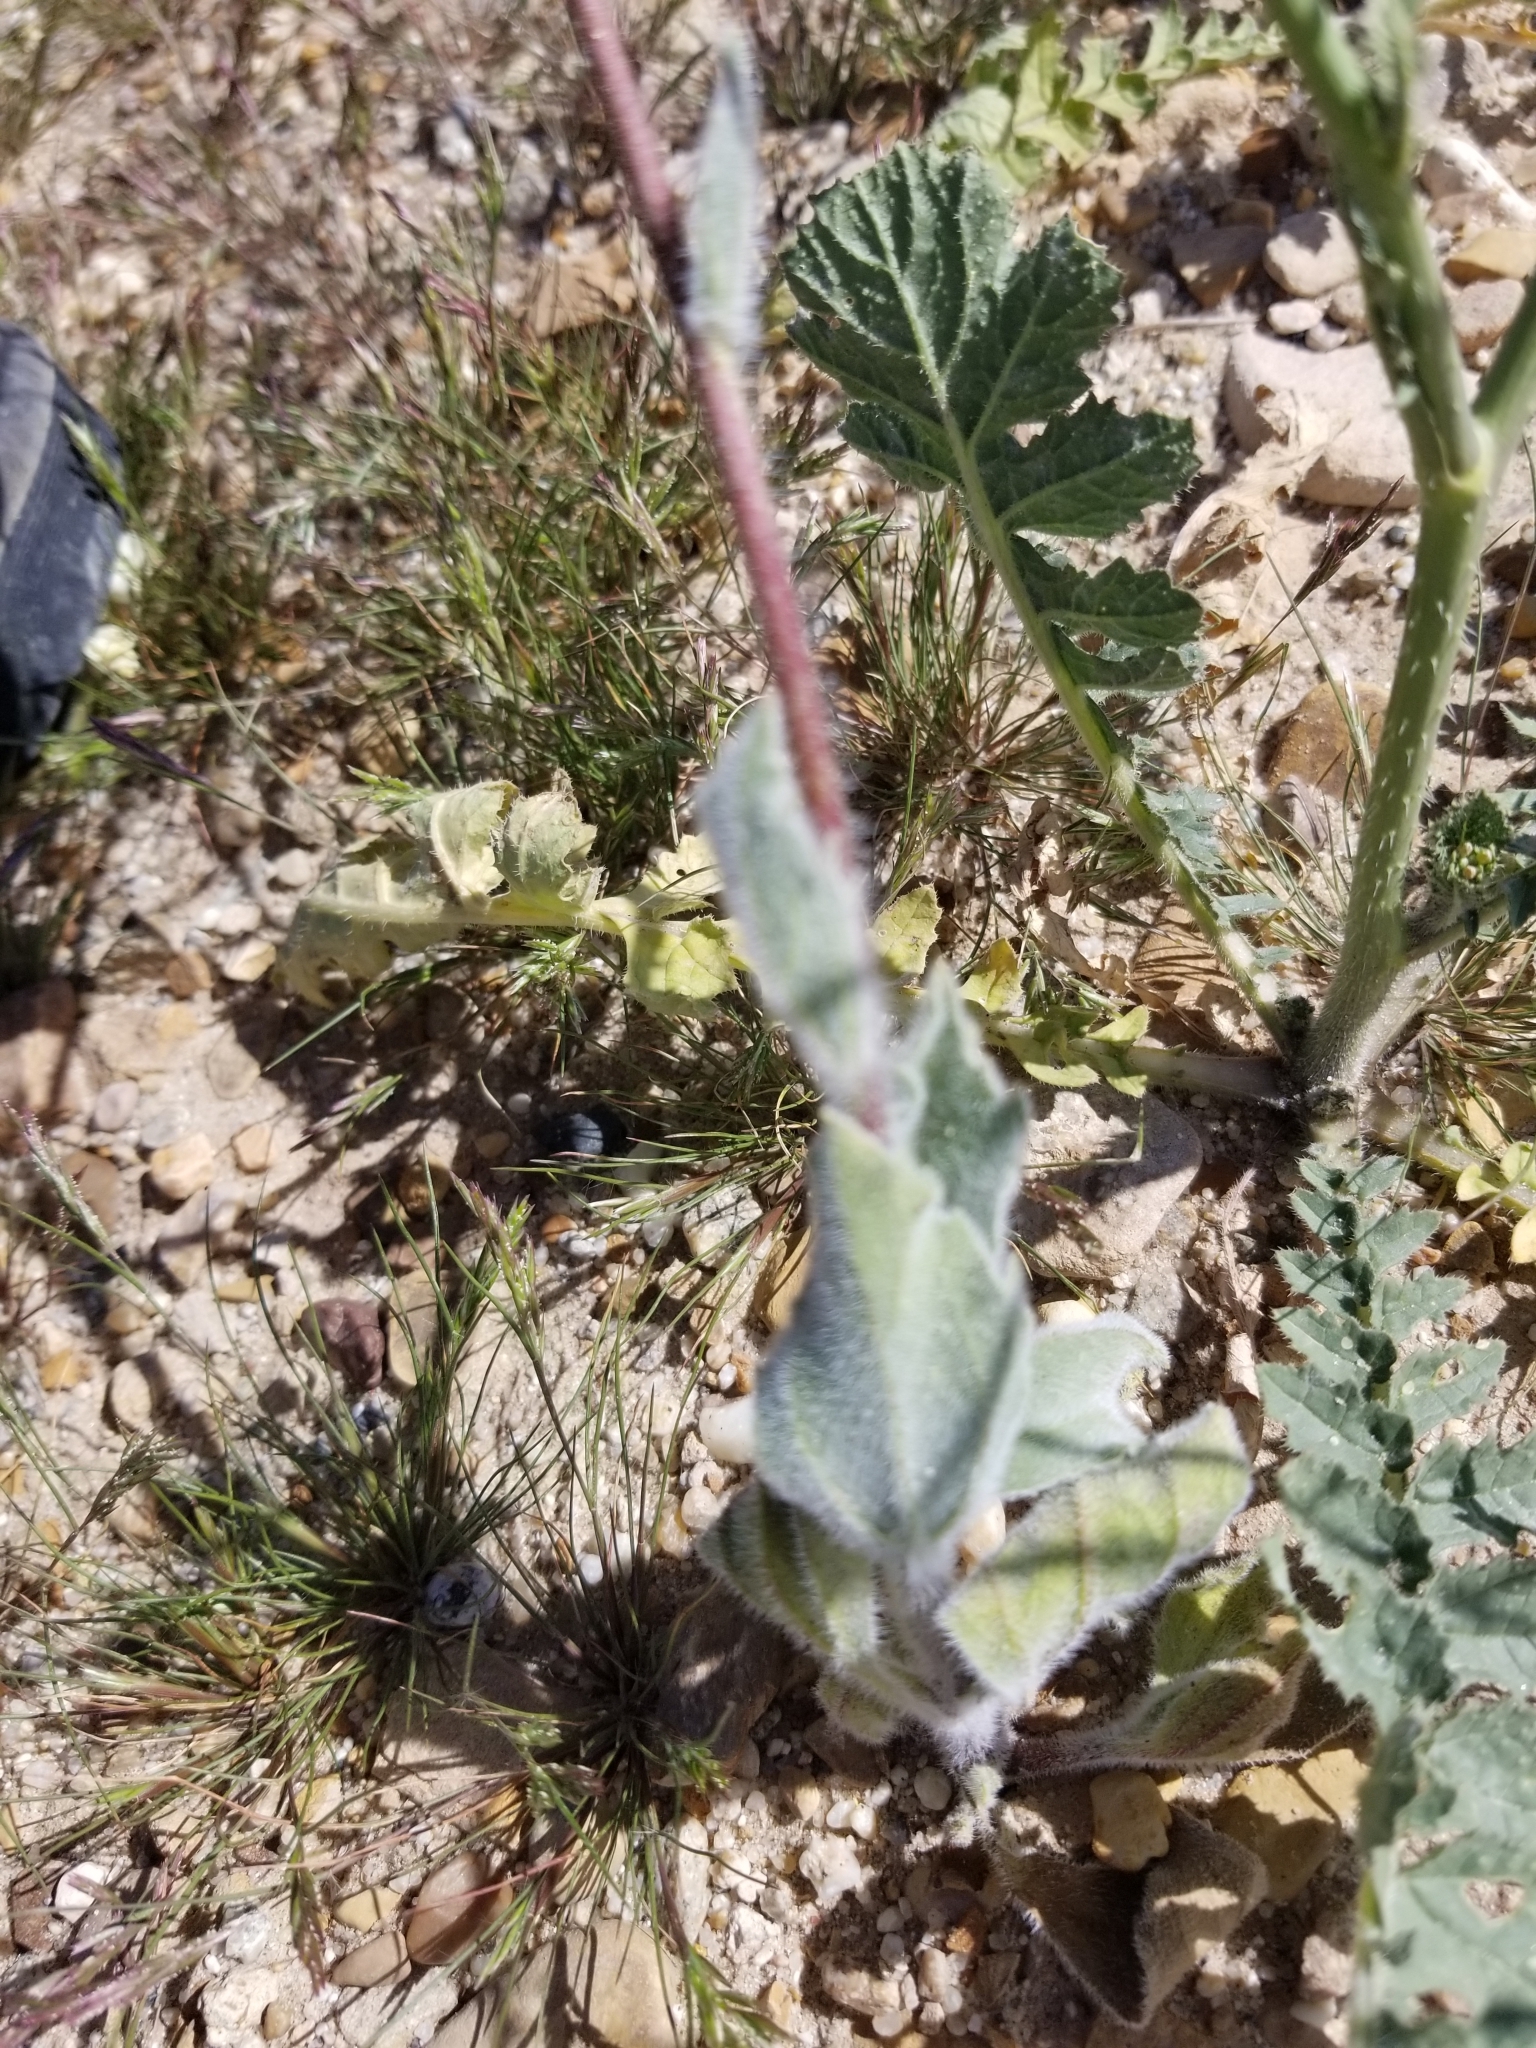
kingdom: Plantae
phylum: Tracheophyta
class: Magnoliopsida
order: Asterales
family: Asteraceae
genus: Geraea
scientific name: Geraea canescens
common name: Desert-gold
